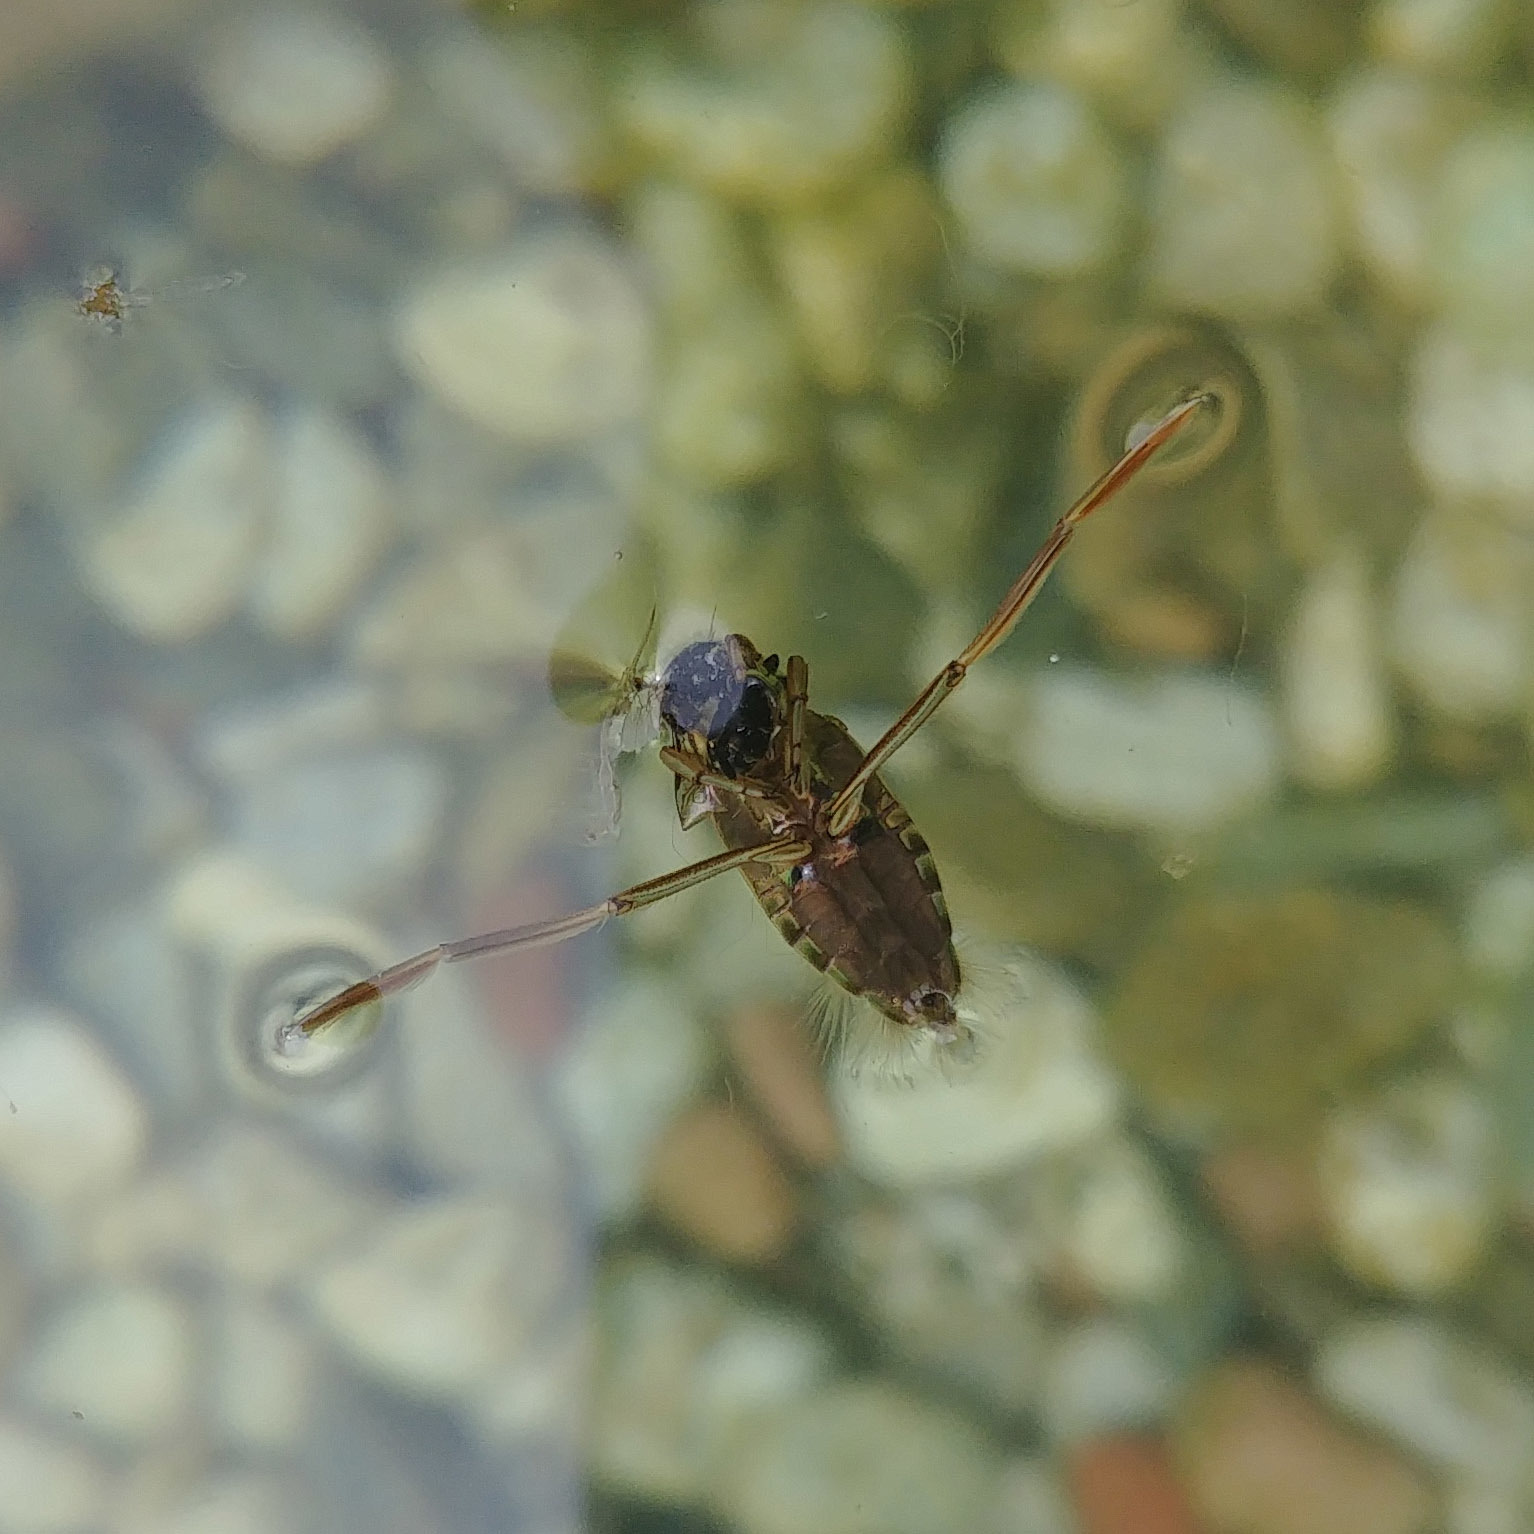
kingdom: Animalia
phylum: Arthropoda
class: Insecta
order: Hemiptera
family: Notonectidae
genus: Notonecta
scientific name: Notonecta
